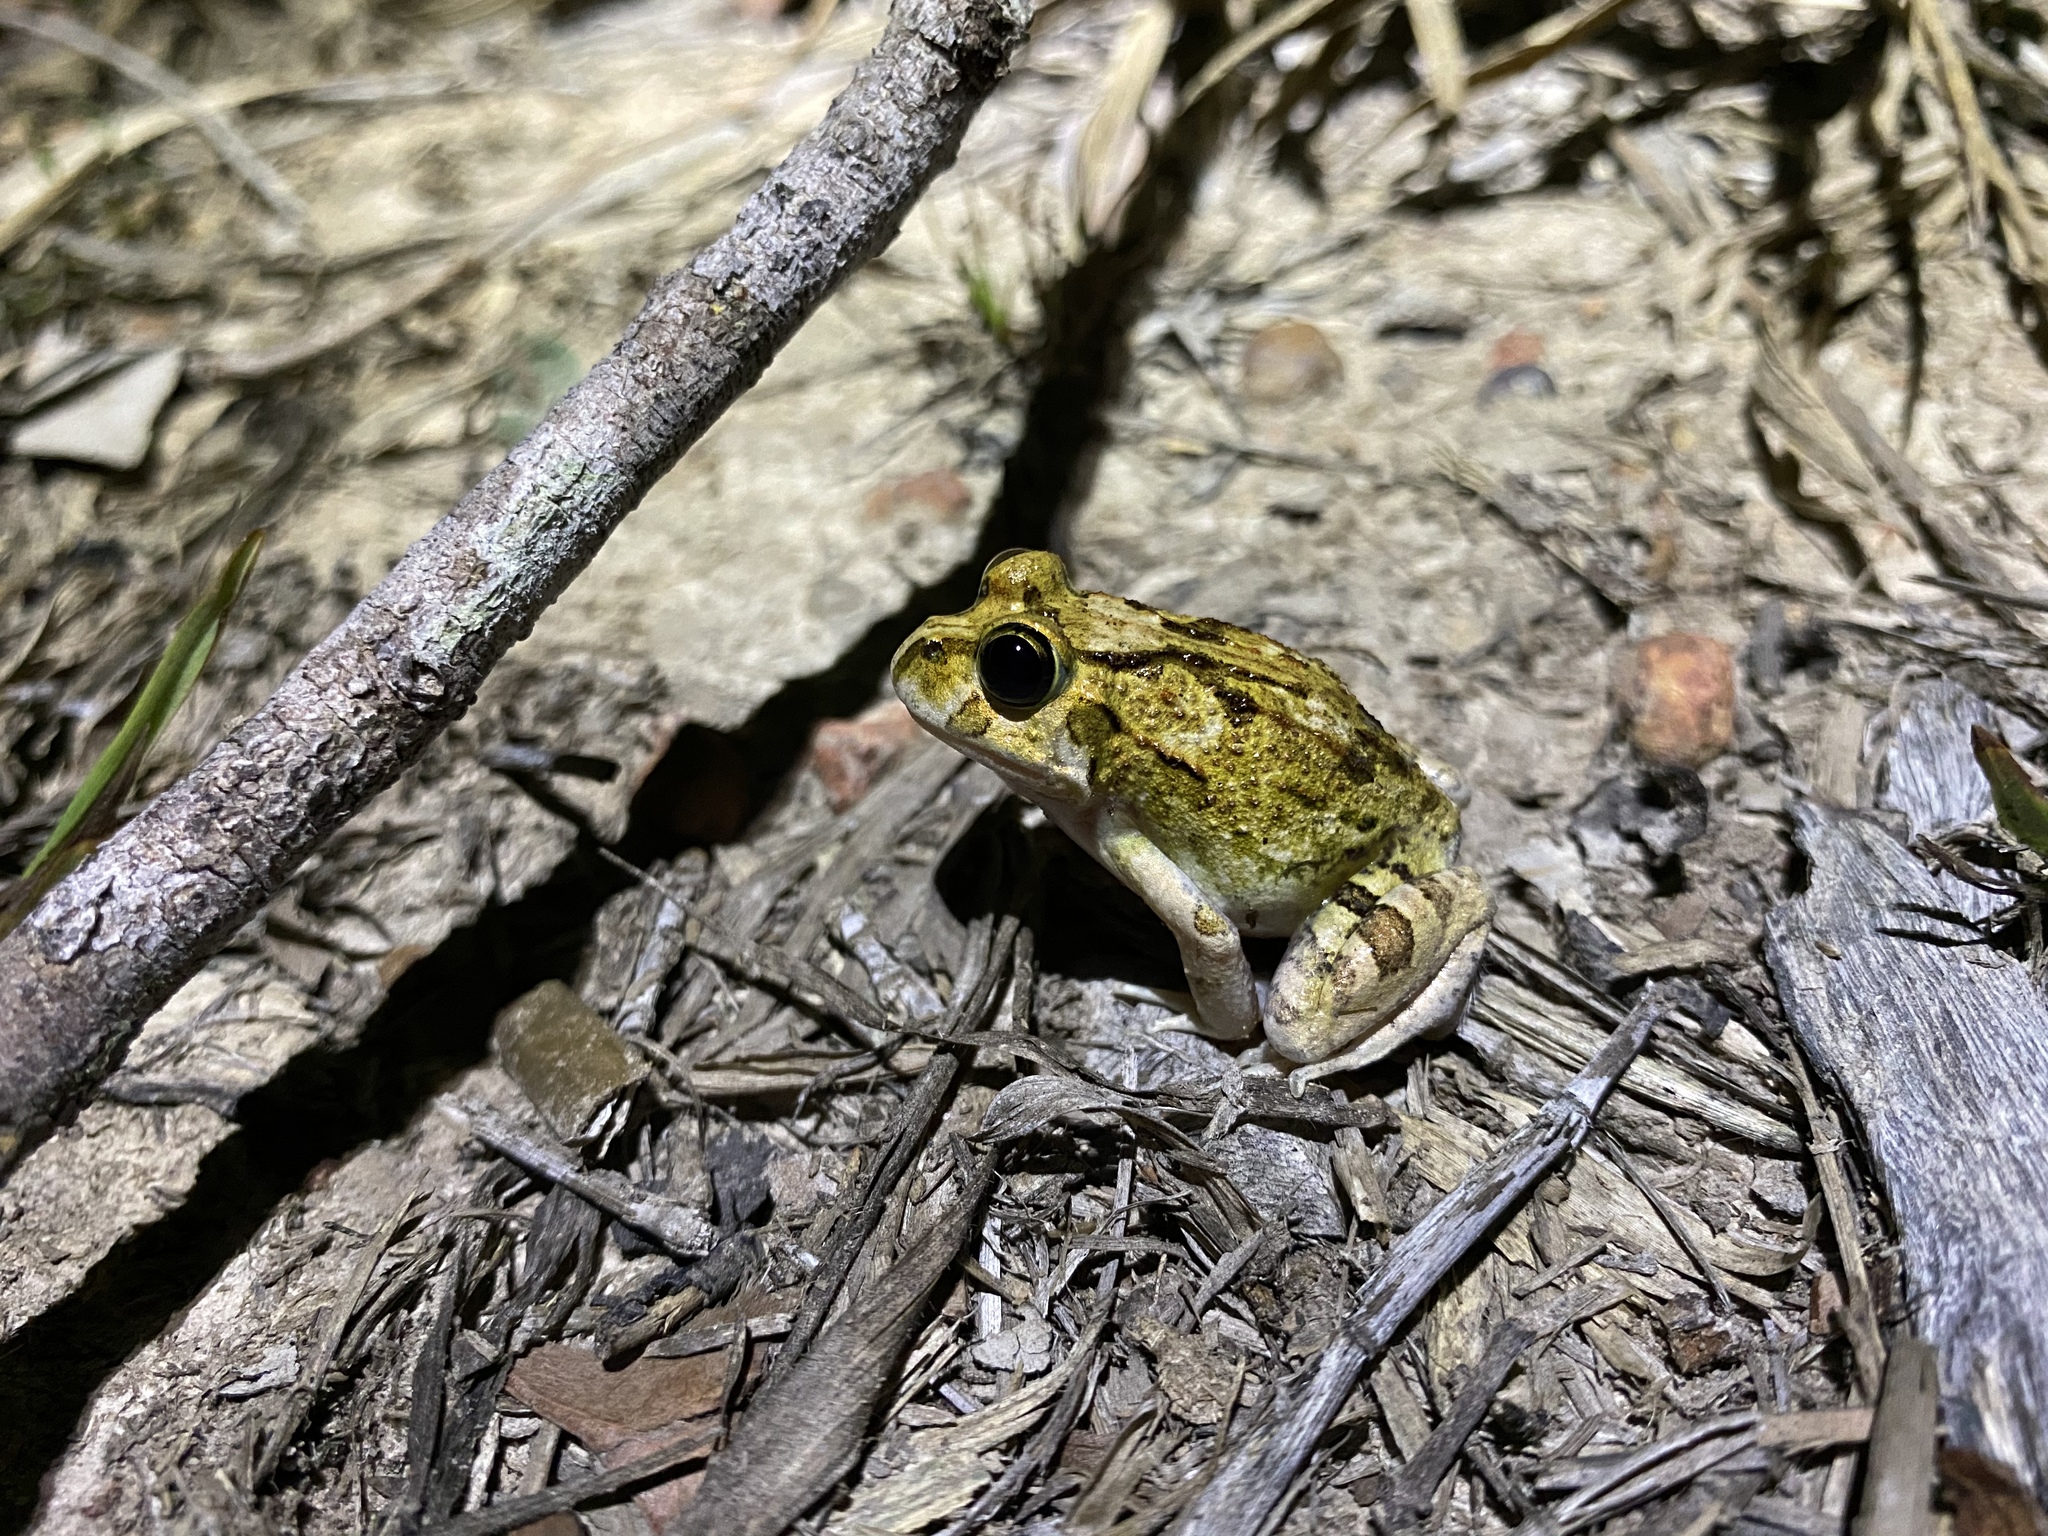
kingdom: Animalia
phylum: Chordata
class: Amphibia
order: Anura
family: Limnodynastidae
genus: Platyplectrum
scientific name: Platyplectrum ornatum
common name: Ornate burrowing frog
